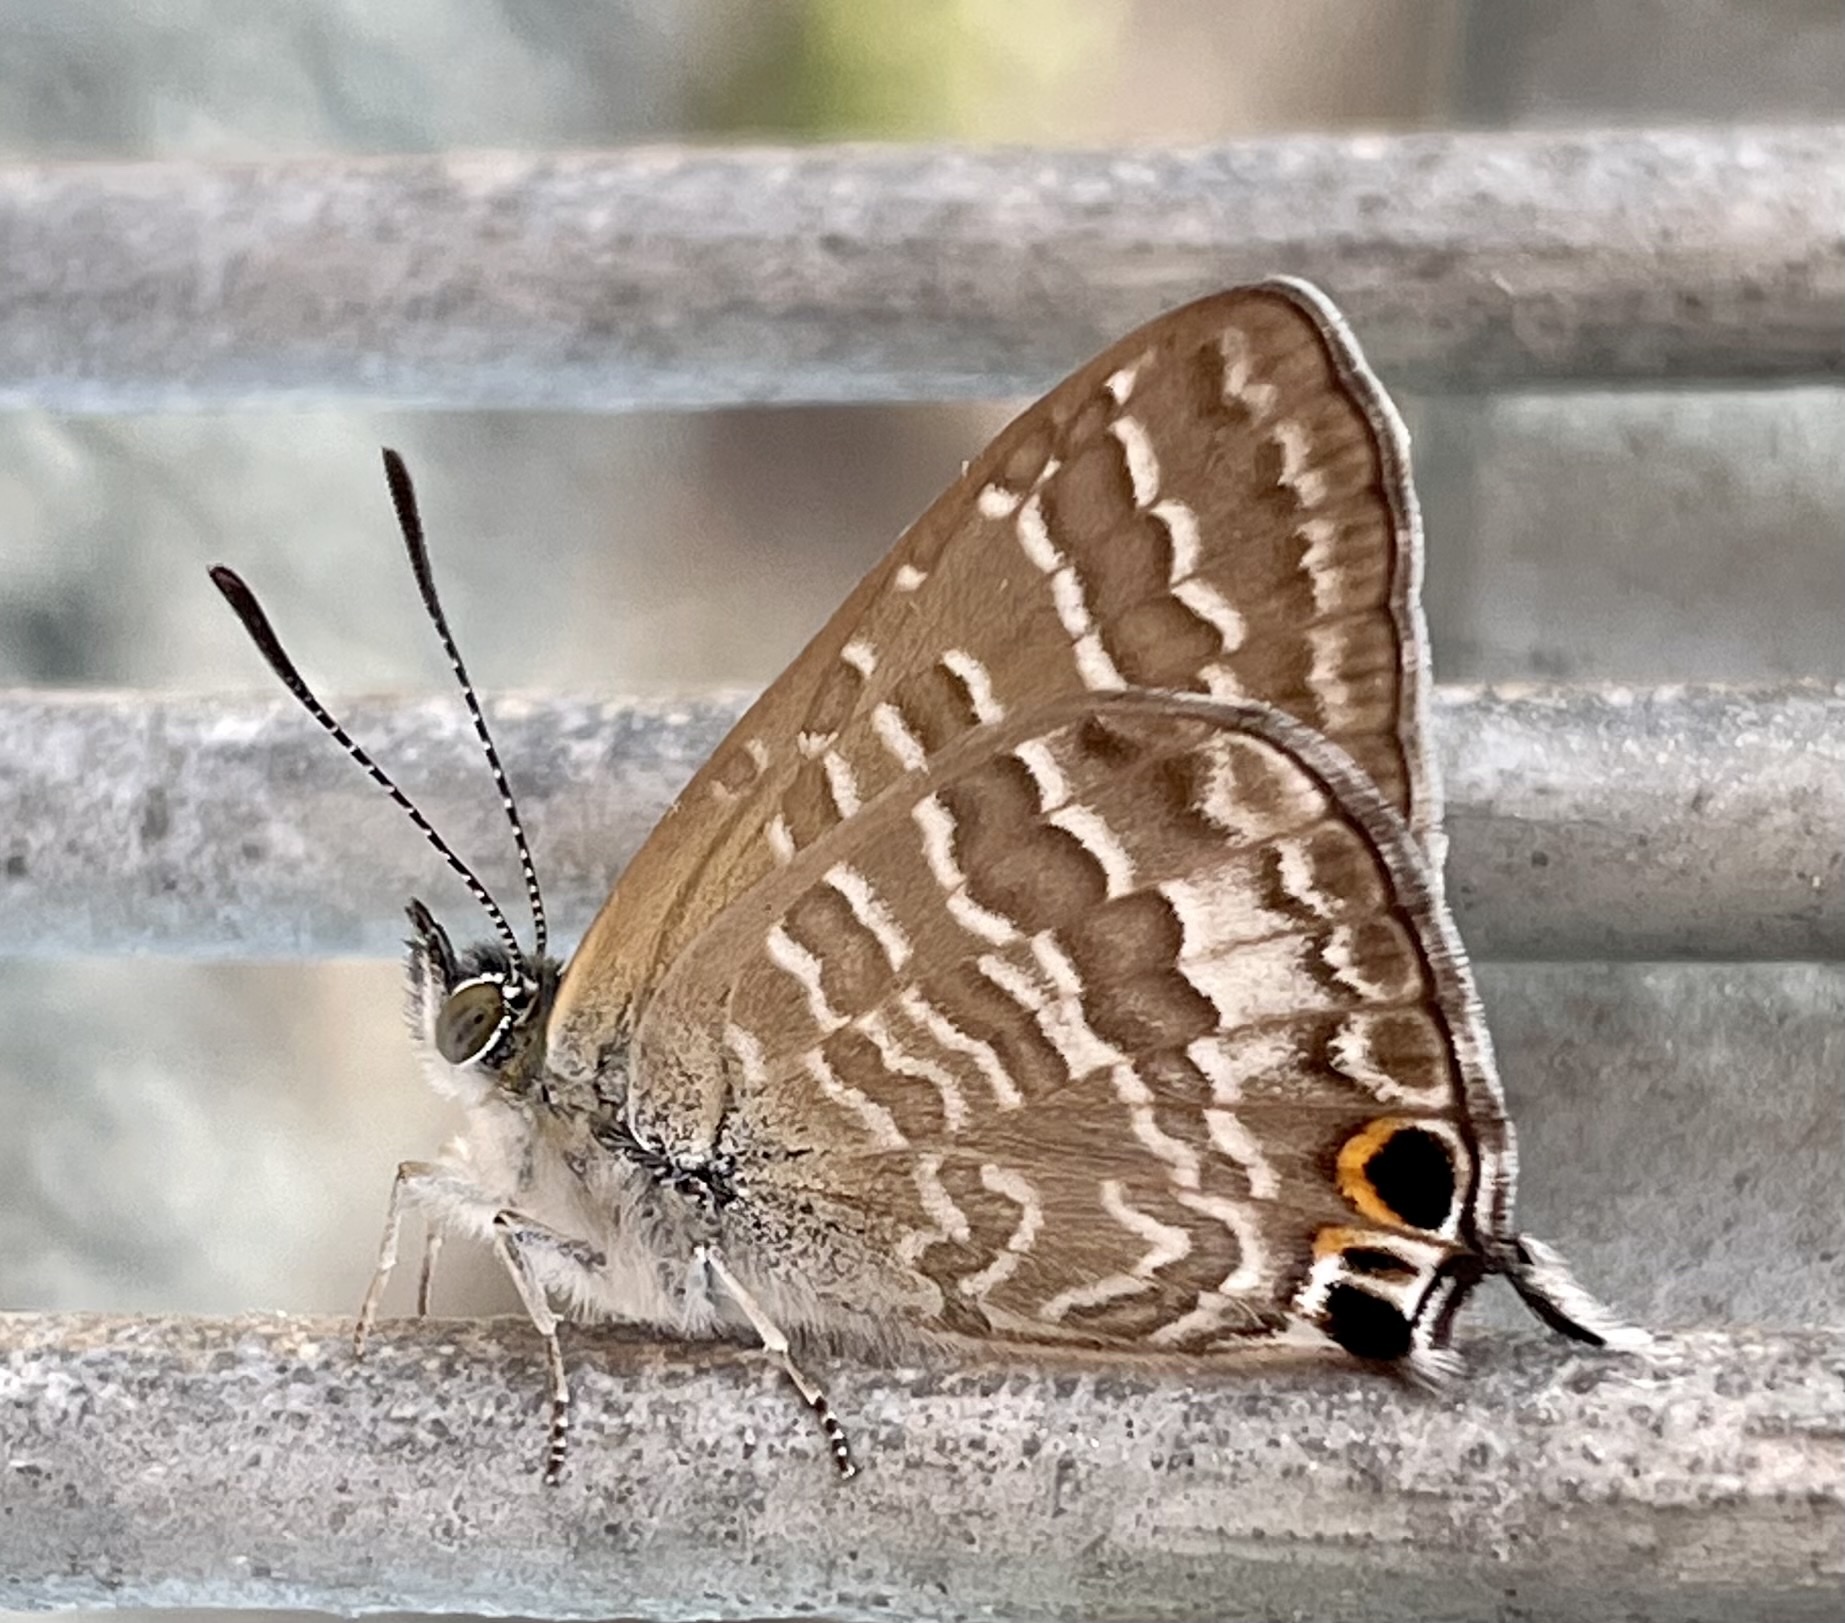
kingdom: Animalia
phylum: Arthropoda
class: Insecta
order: Lepidoptera
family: Lycaenidae
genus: Theclinesthes
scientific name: Theclinesthes onycha
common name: Cycad blue
